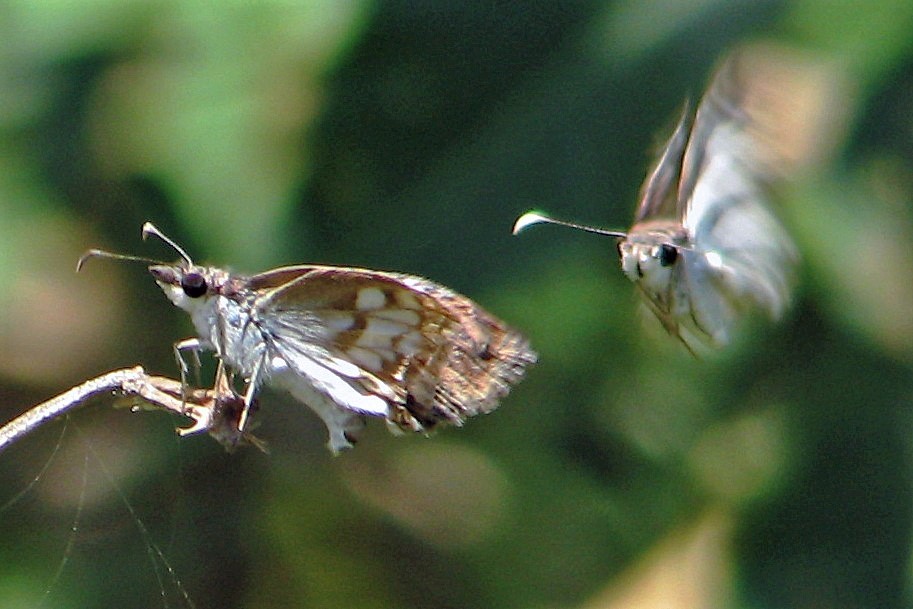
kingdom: Animalia
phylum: Arthropoda
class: Insecta
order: Lepidoptera
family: Hesperiidae
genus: Chiomara
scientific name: Chiomara asychis
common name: White-patterned skipper
